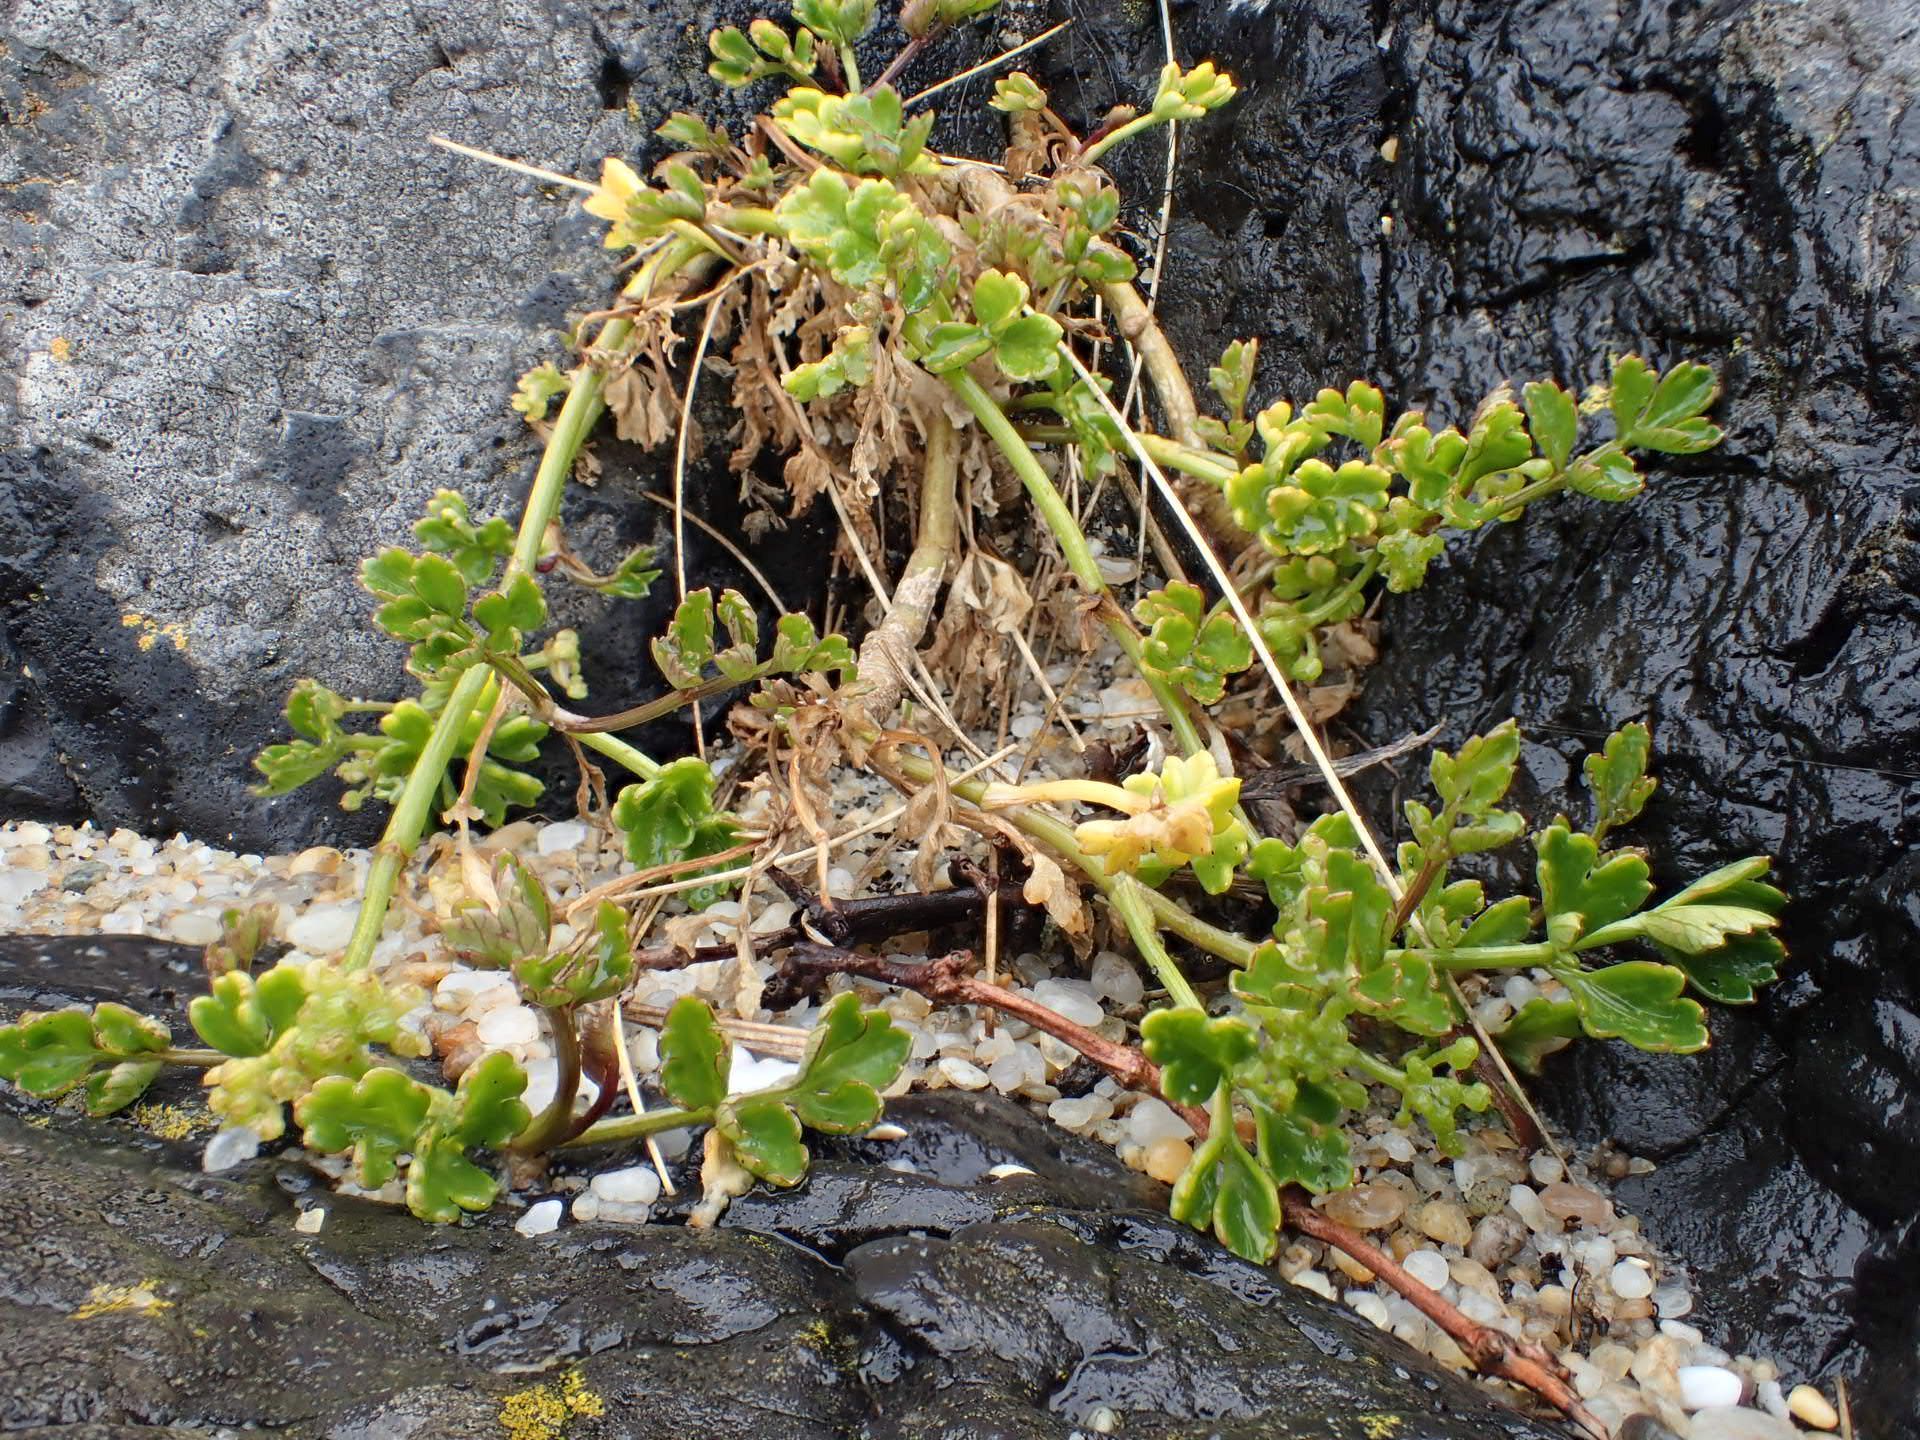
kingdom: Plantae
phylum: Tracheophyta
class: Magnoliopsida
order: Apiales
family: Apiaceae
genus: Apium
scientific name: Apium prostratum
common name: Prostrate marshwort
